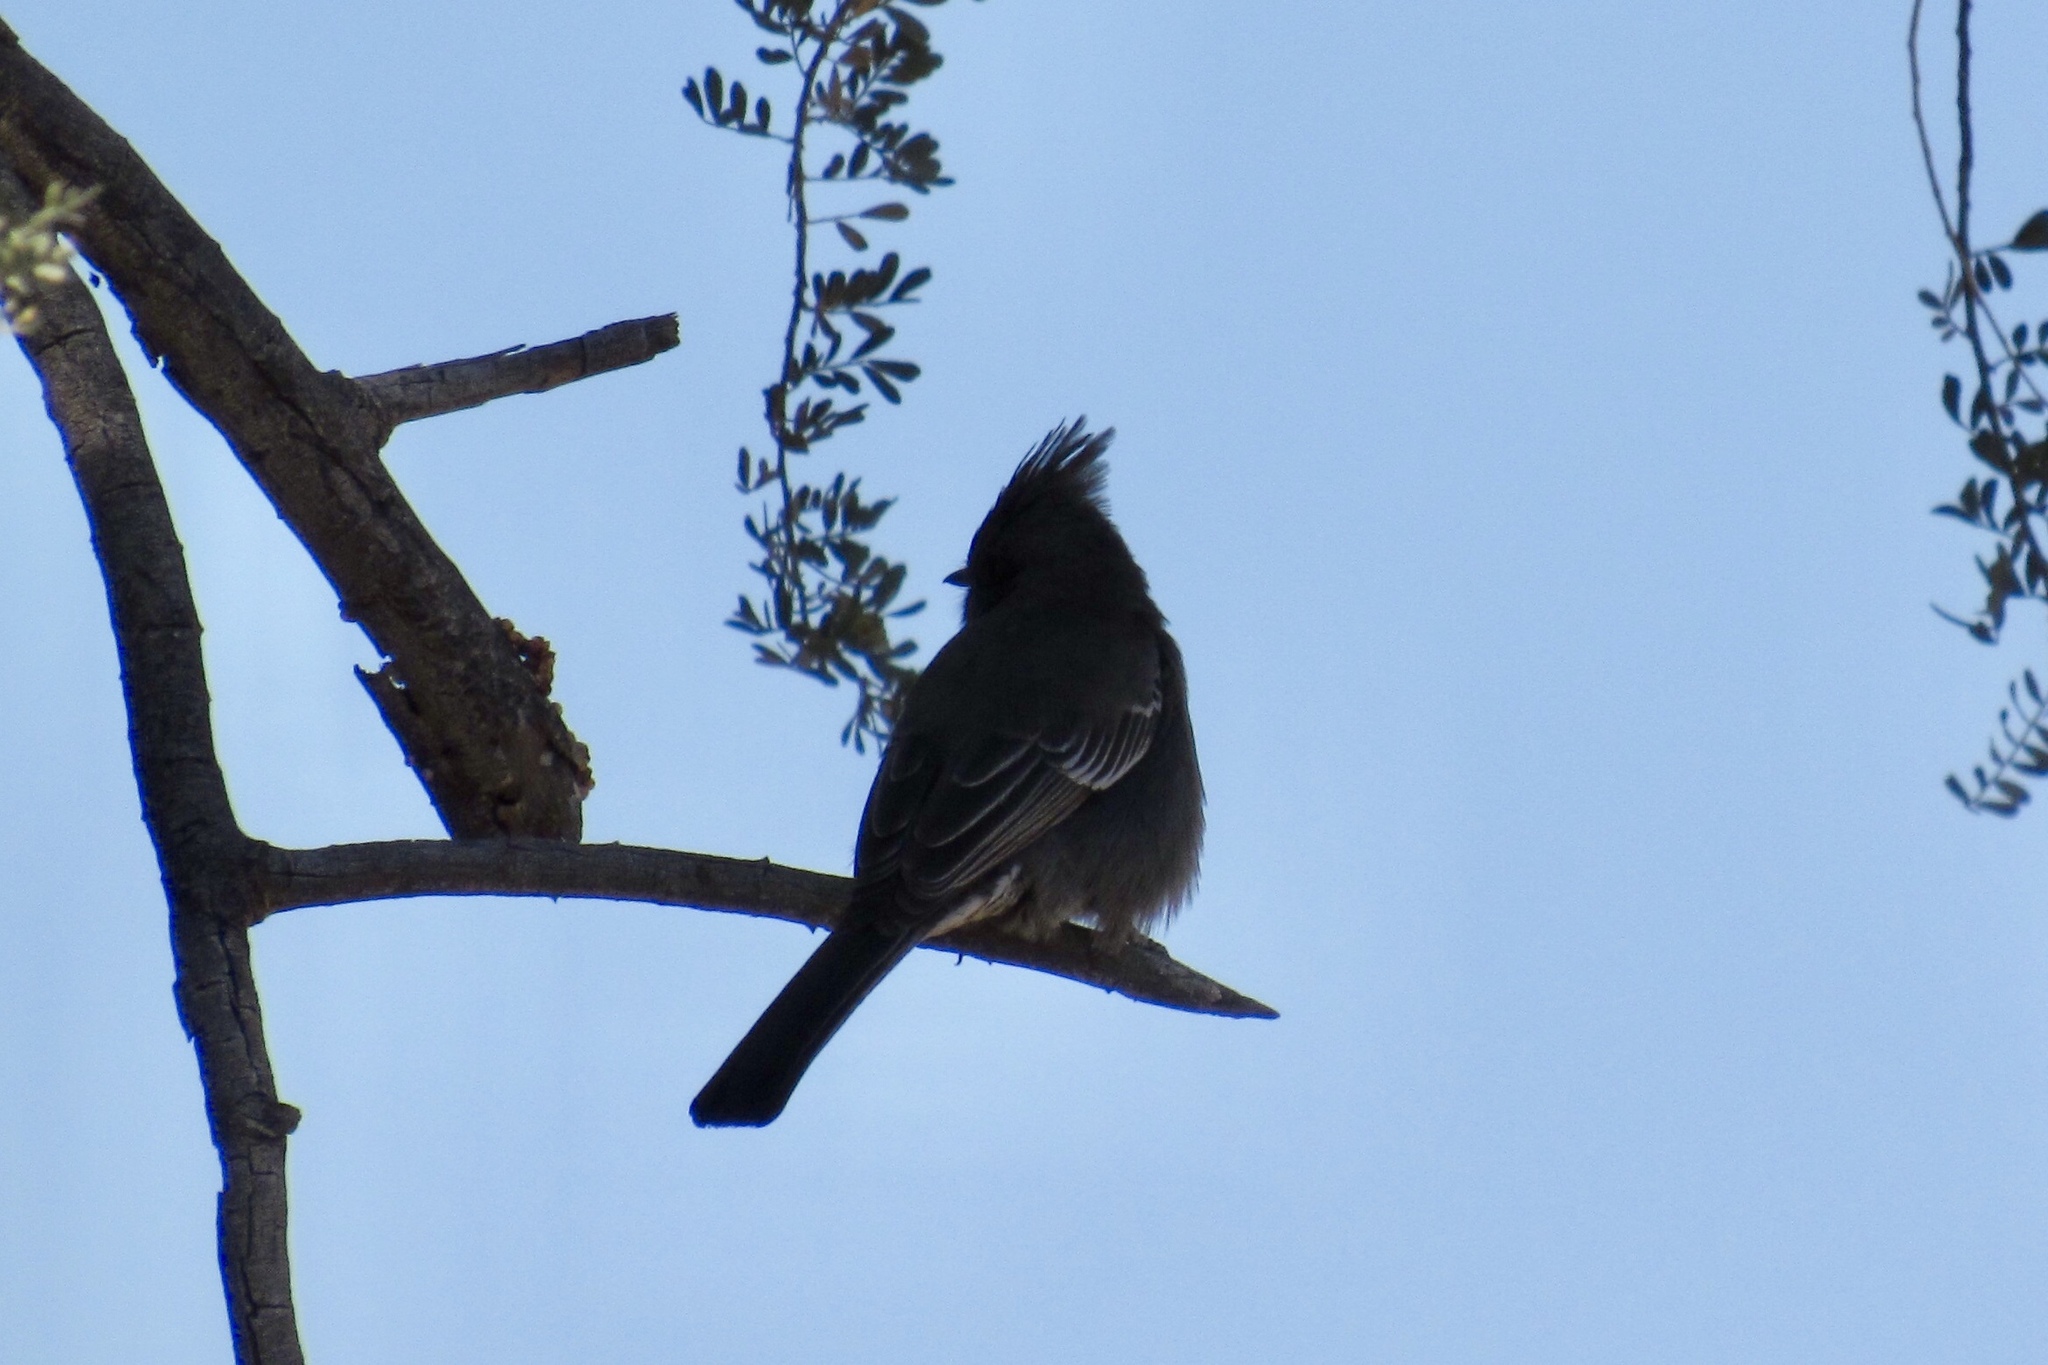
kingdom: Animalia
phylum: Chordata
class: Aves
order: Passeriformes
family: Ptilogonatidae
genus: Phainopepla
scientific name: Phainopepla nitens
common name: Phainopepla
